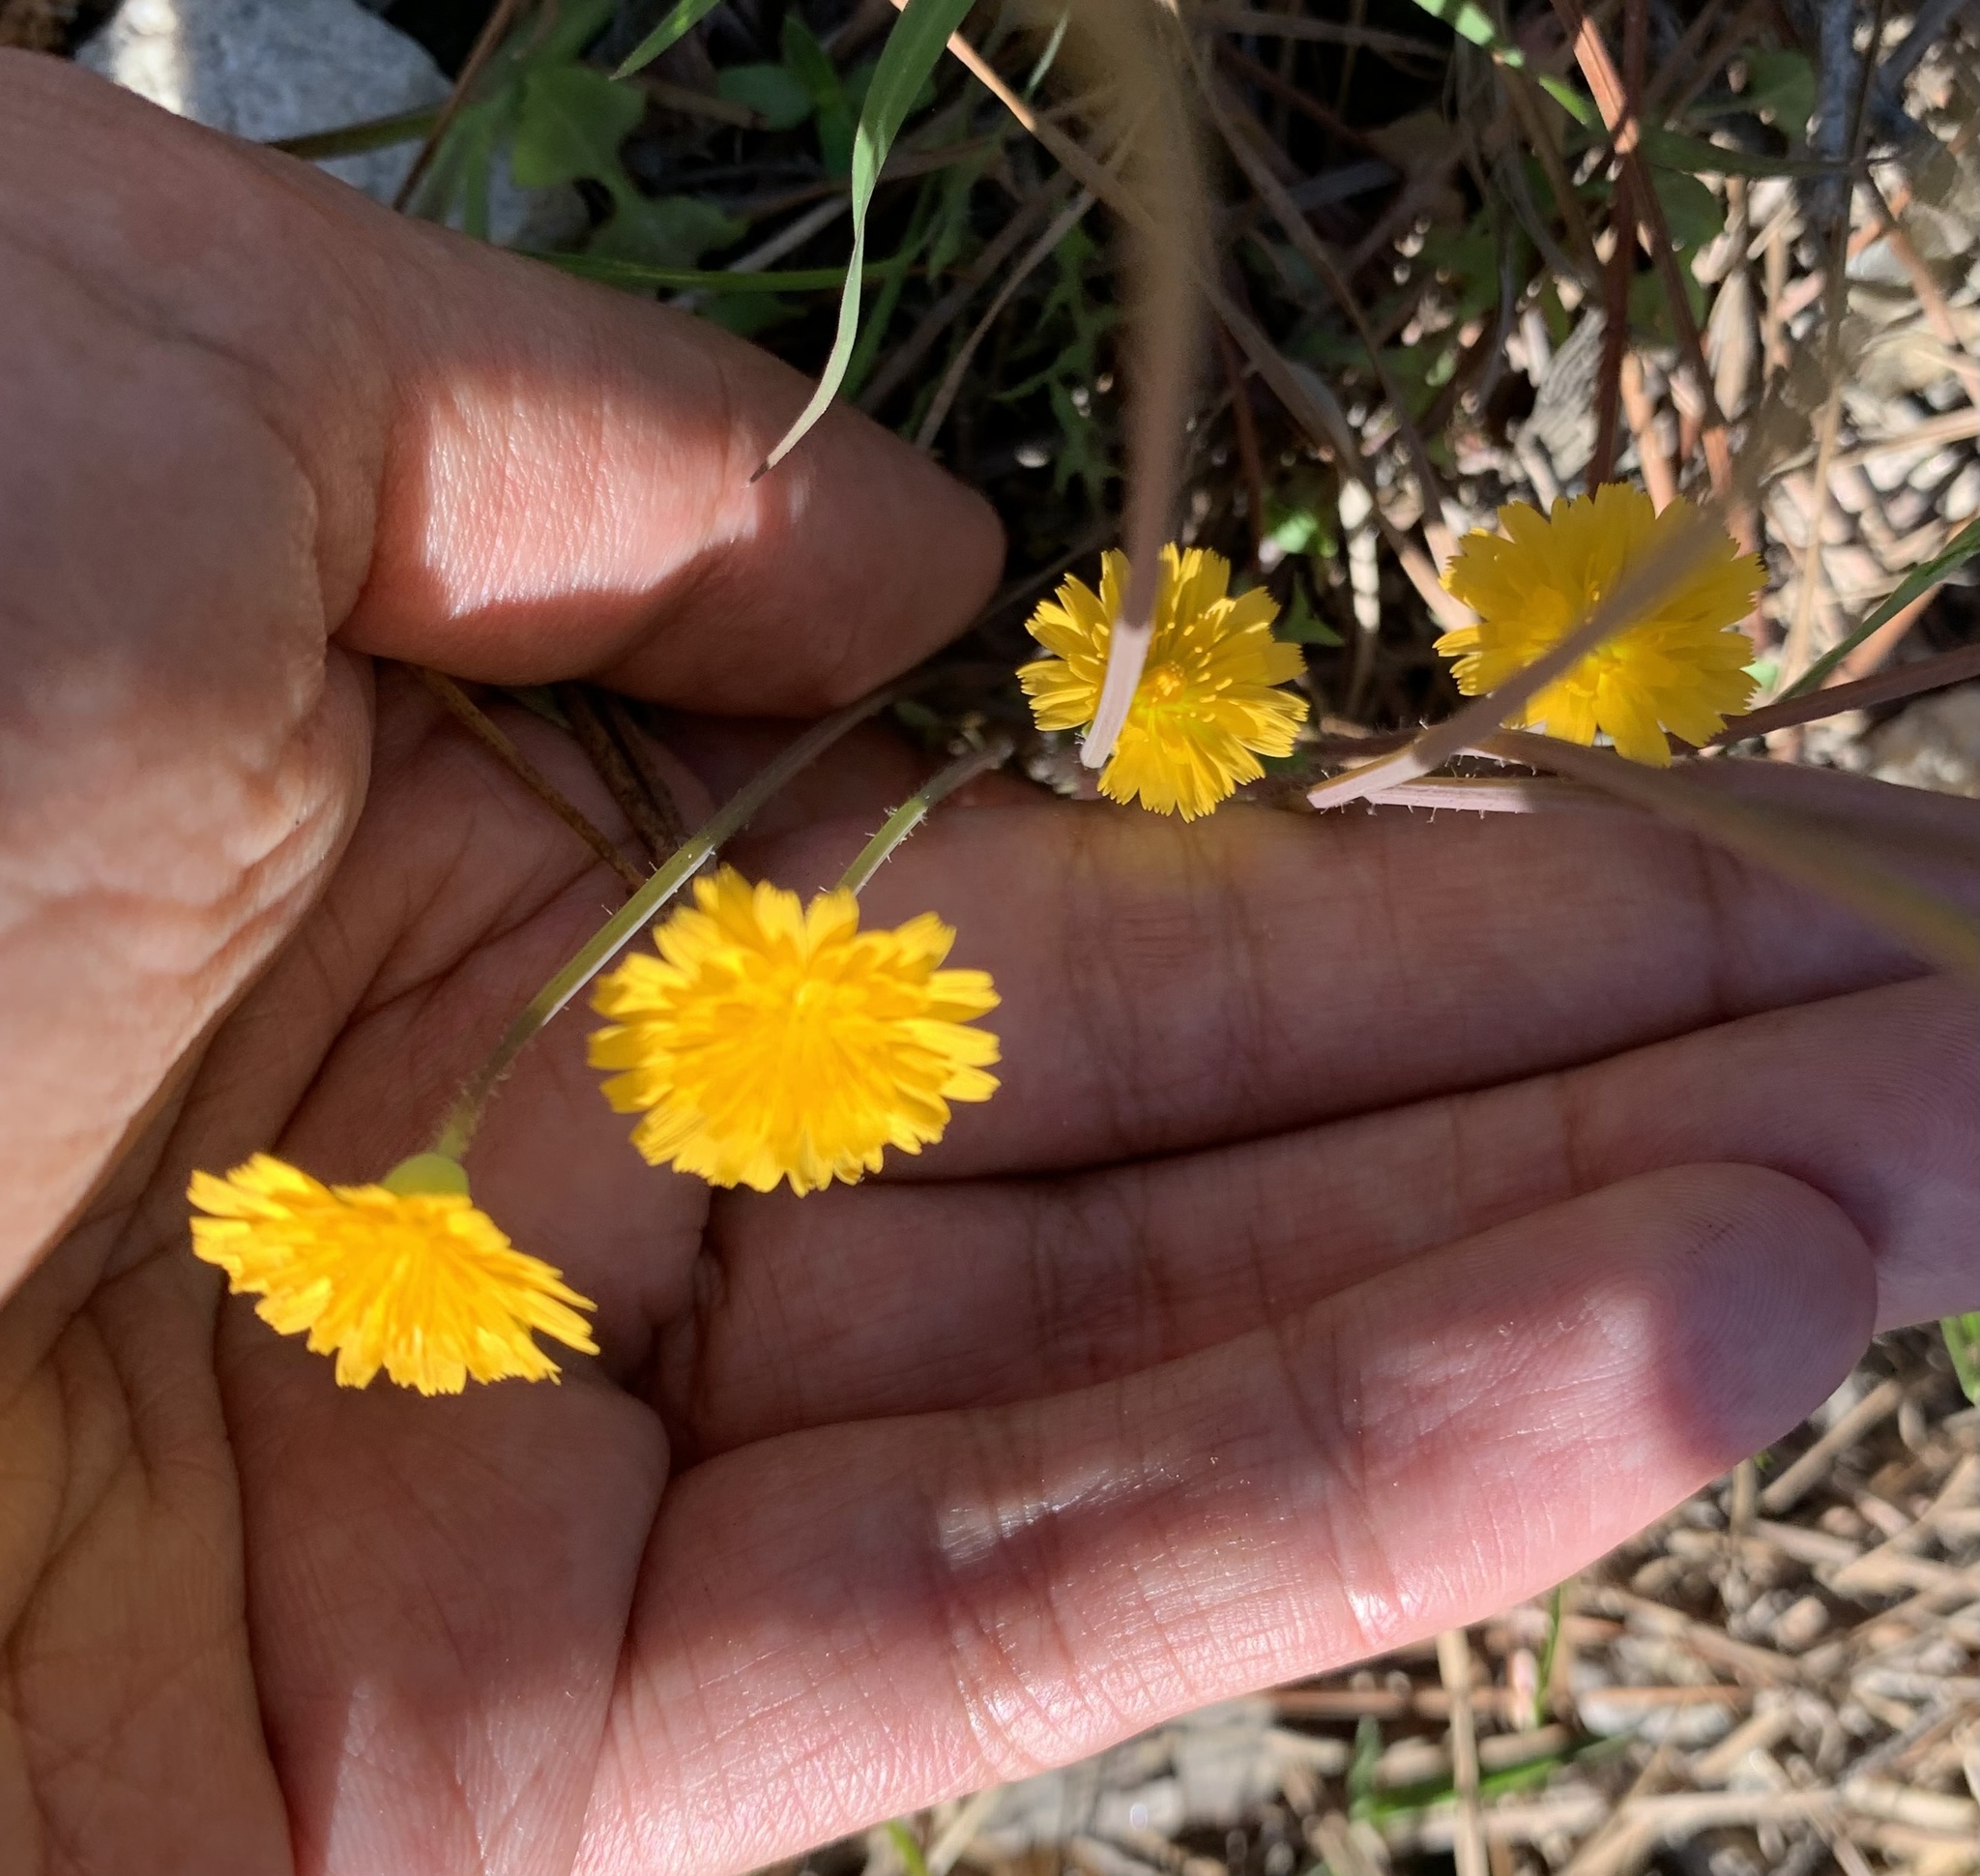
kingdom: Plantae
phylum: Tracheophyta
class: Magnoliopsida
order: Asterales
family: Asteraceae
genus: Krigia
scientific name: Krigia virginica
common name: Virginia dwarf-dandelion
